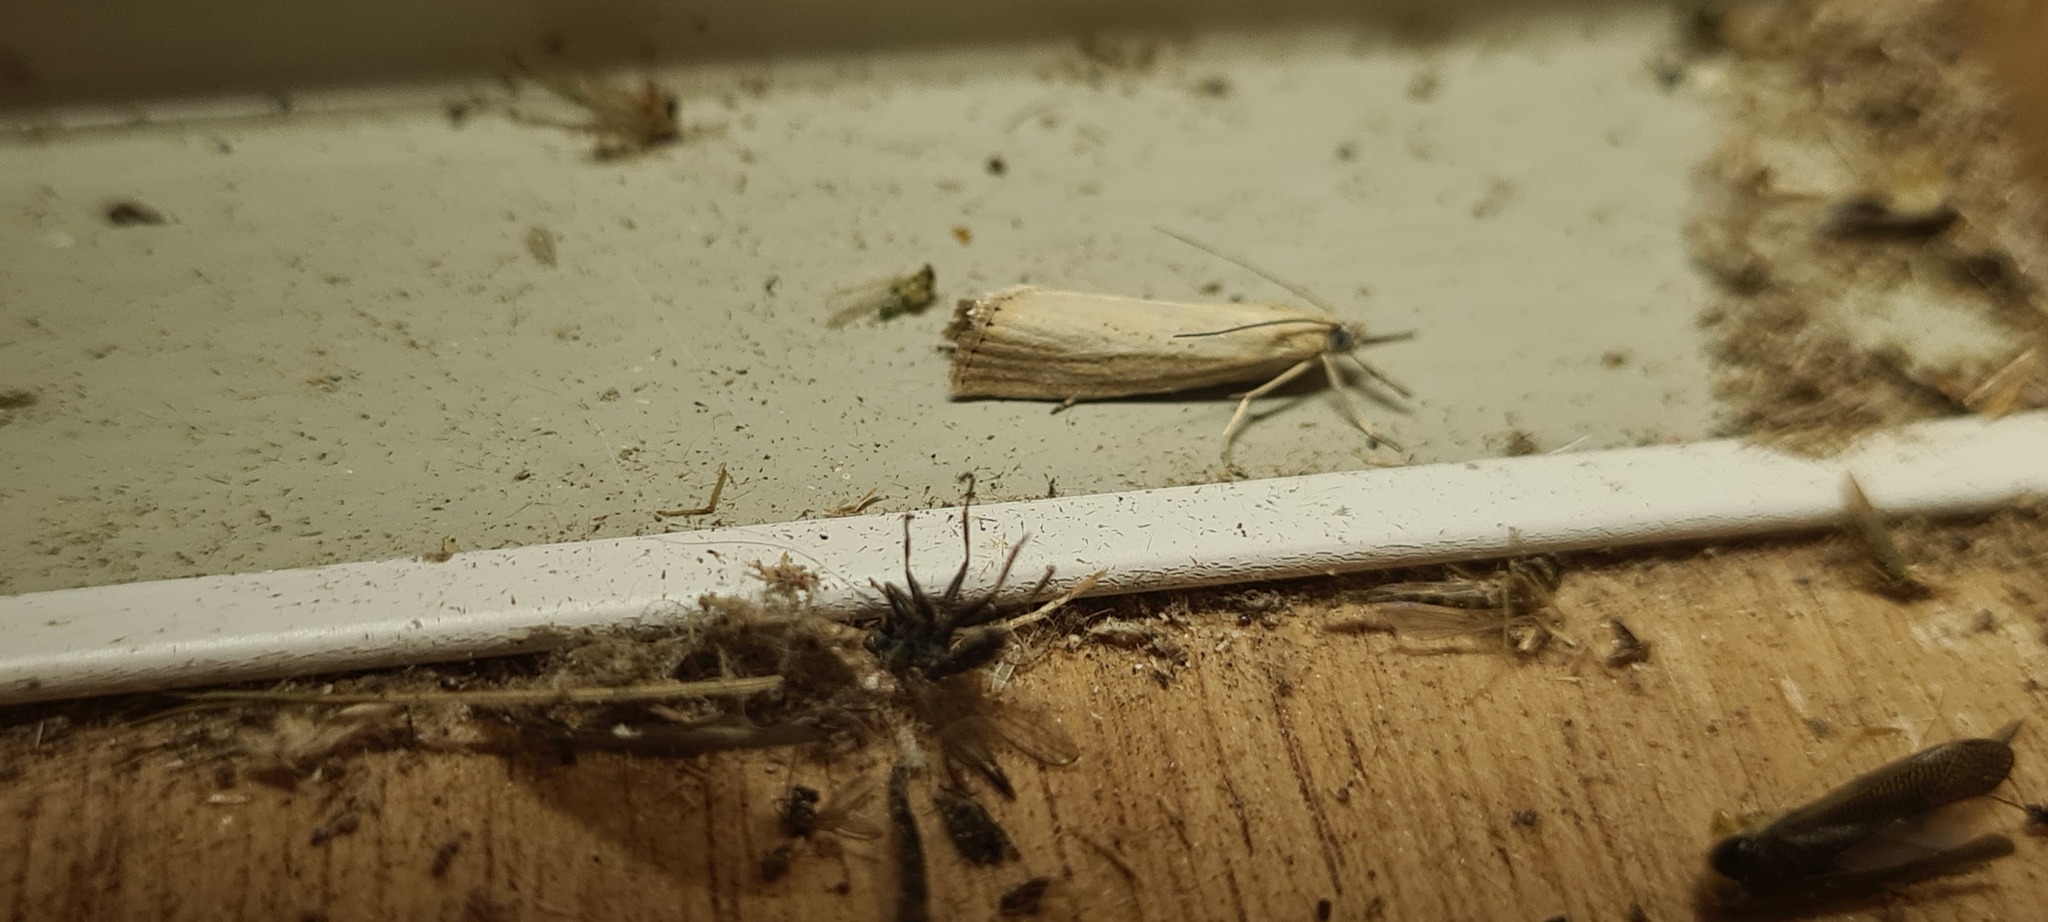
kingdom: Animalia
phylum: Arthropoda
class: Insecta
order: Lepidoptera
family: Crambidae
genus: Agriphila
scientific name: Agriphila straminella
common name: Straw grass-veneer
